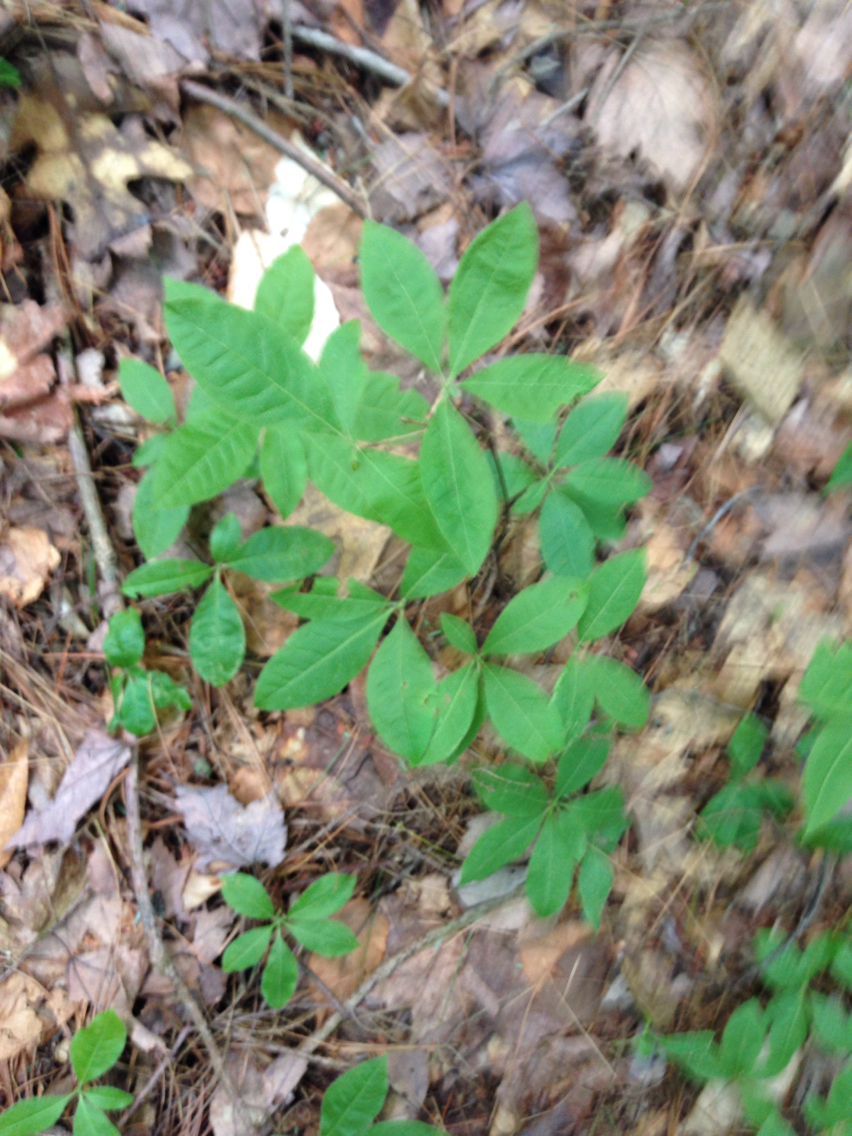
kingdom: Plantae
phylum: Tracheophyta
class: Magnoliopsida
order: Ericales
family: Ericaceae
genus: Rhododendron
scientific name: Rhododendron roseum
